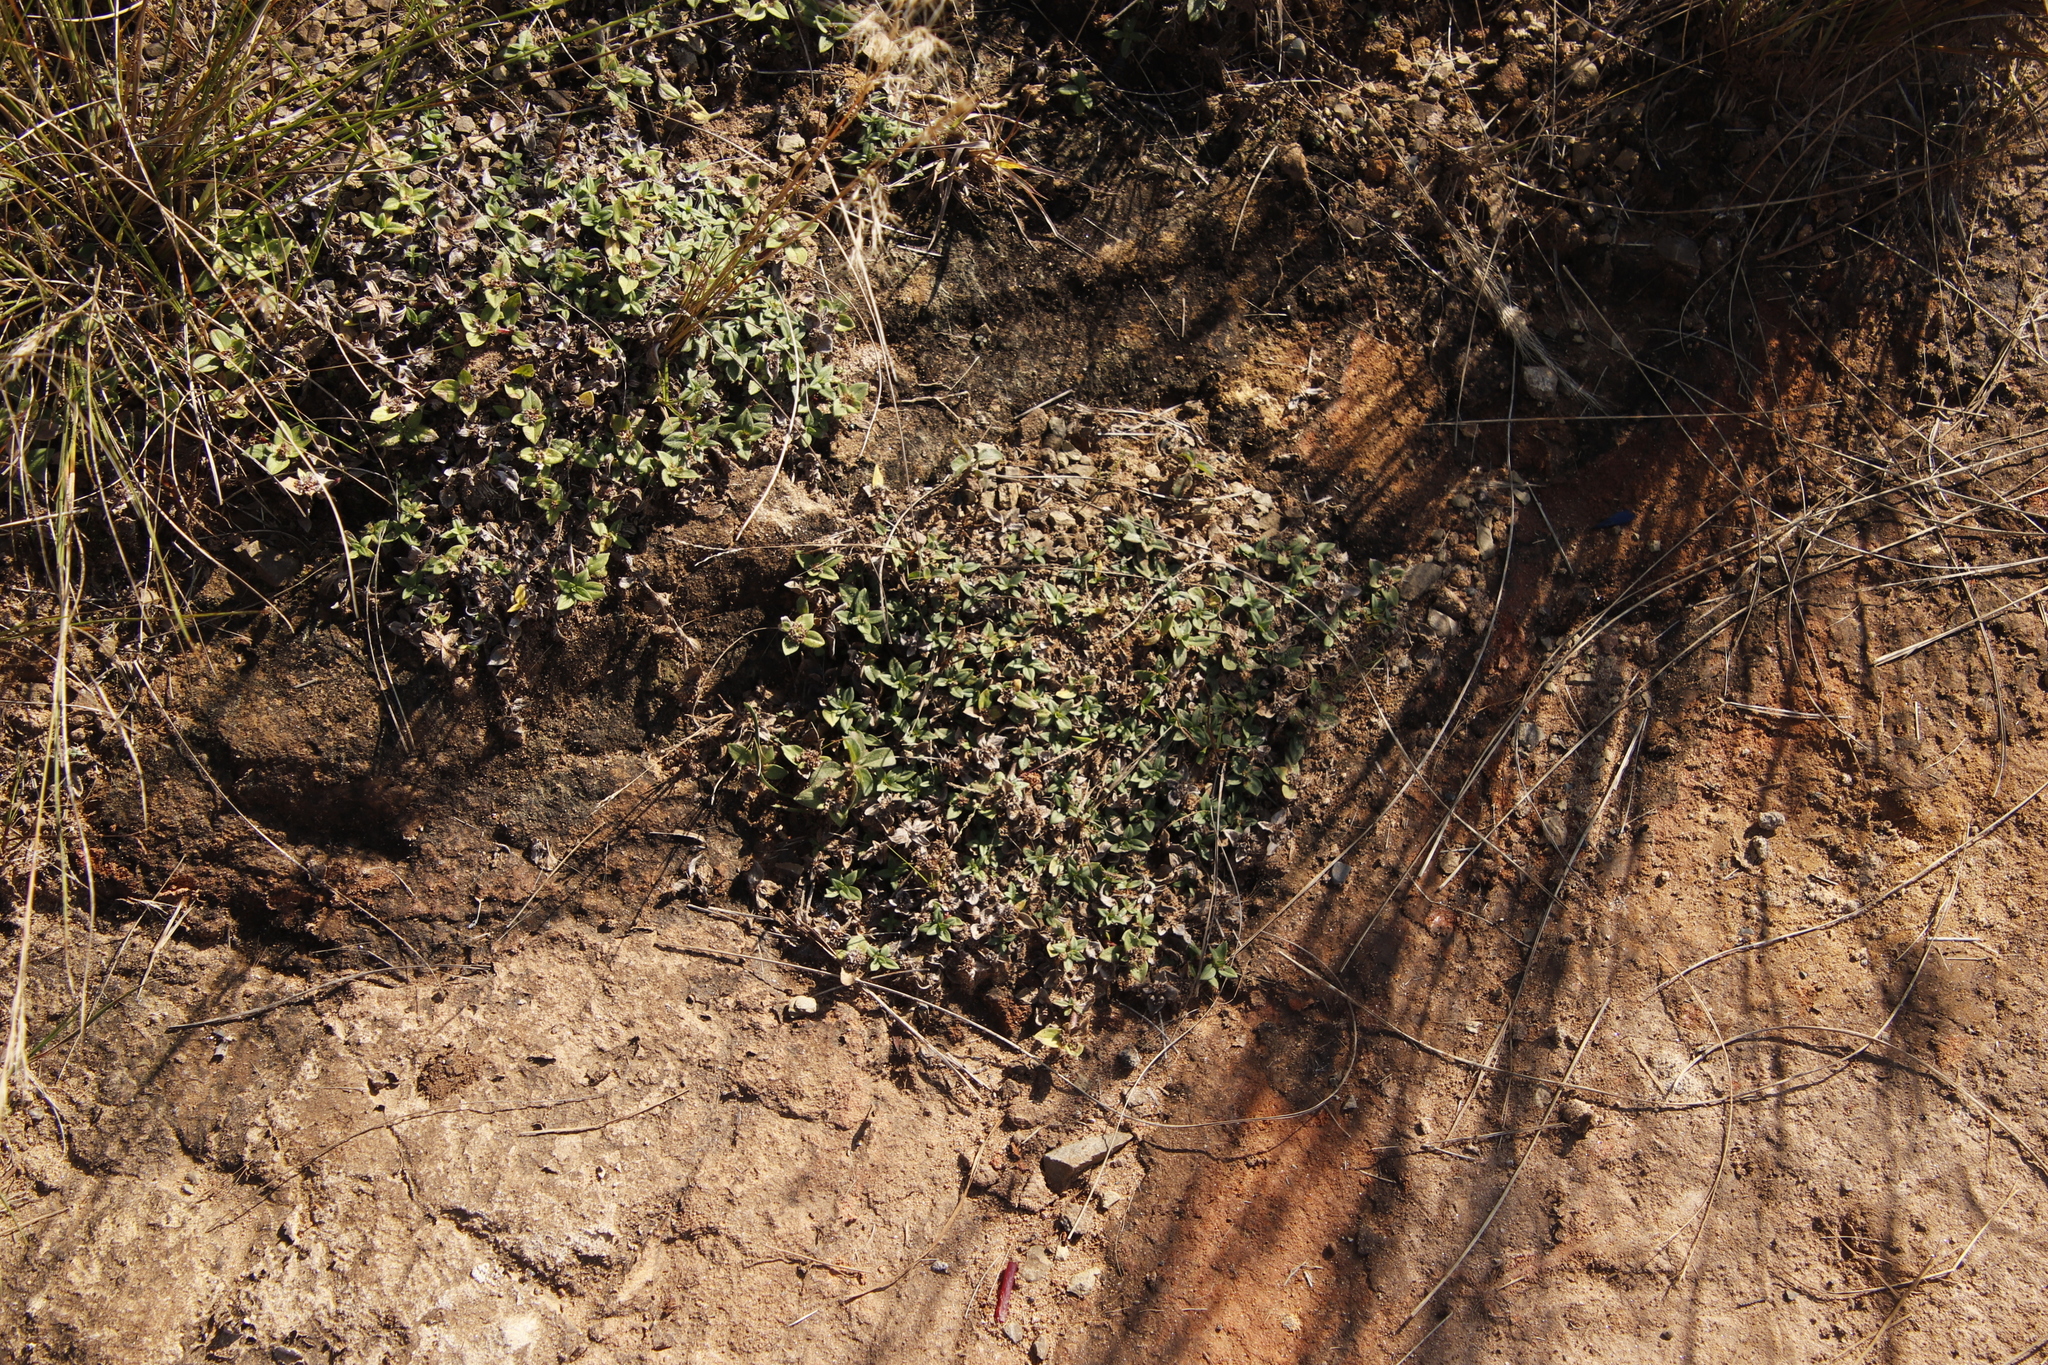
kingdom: Plantae
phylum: Tracheophyta
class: Magnoliopsida
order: Gentianales
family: Rubiaceae
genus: Richardia
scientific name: Richardia brasiliensis
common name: Tropical mexican clover
